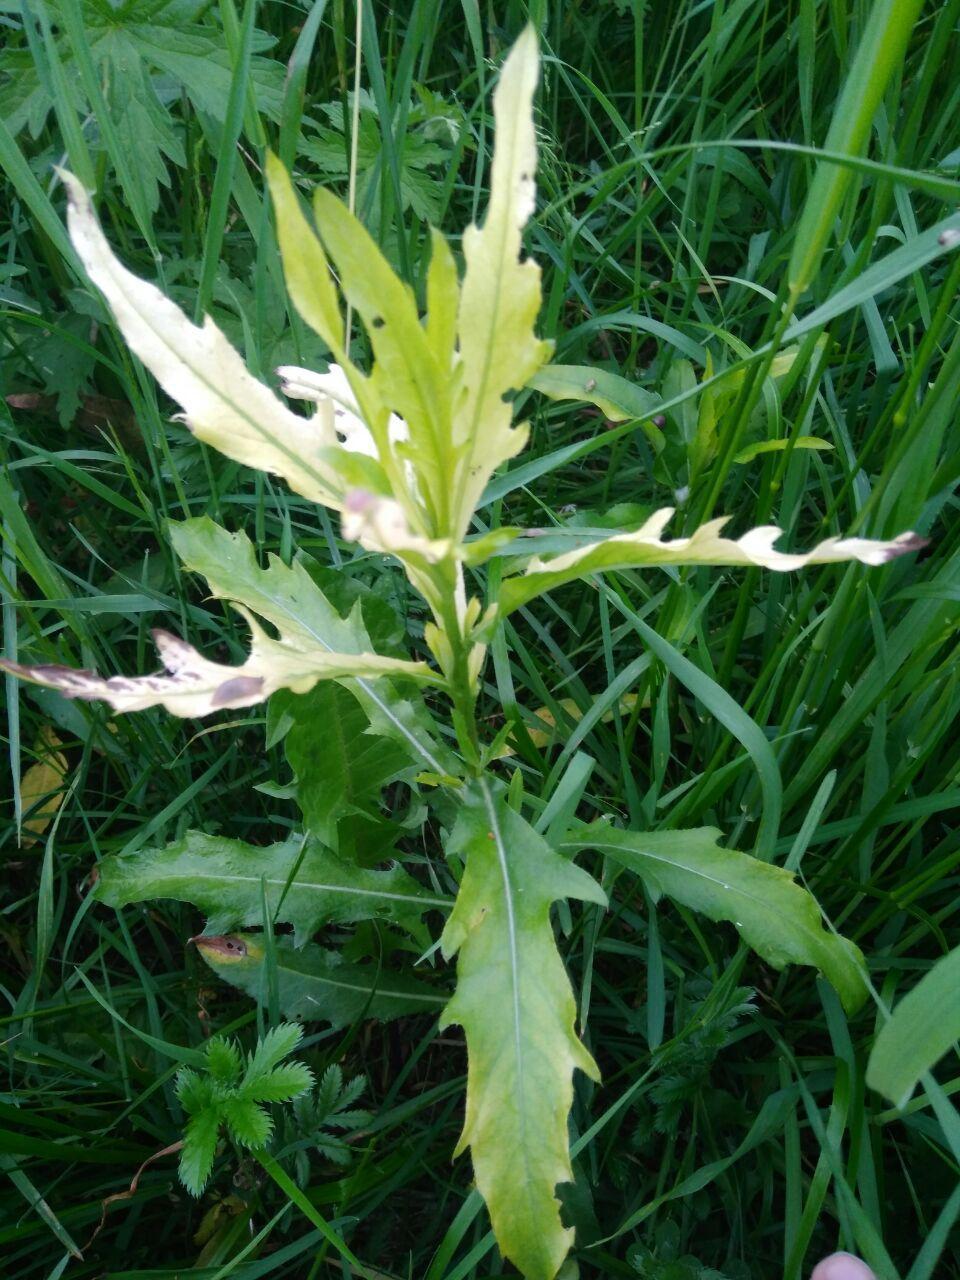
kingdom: Bacteria
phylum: Proteobacteria
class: Gammaproteobacteria
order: Pseudomonadales
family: Pseudomonadaceae
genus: Pseudomonas
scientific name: Pseudomonas syringae
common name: Bacterial speck
